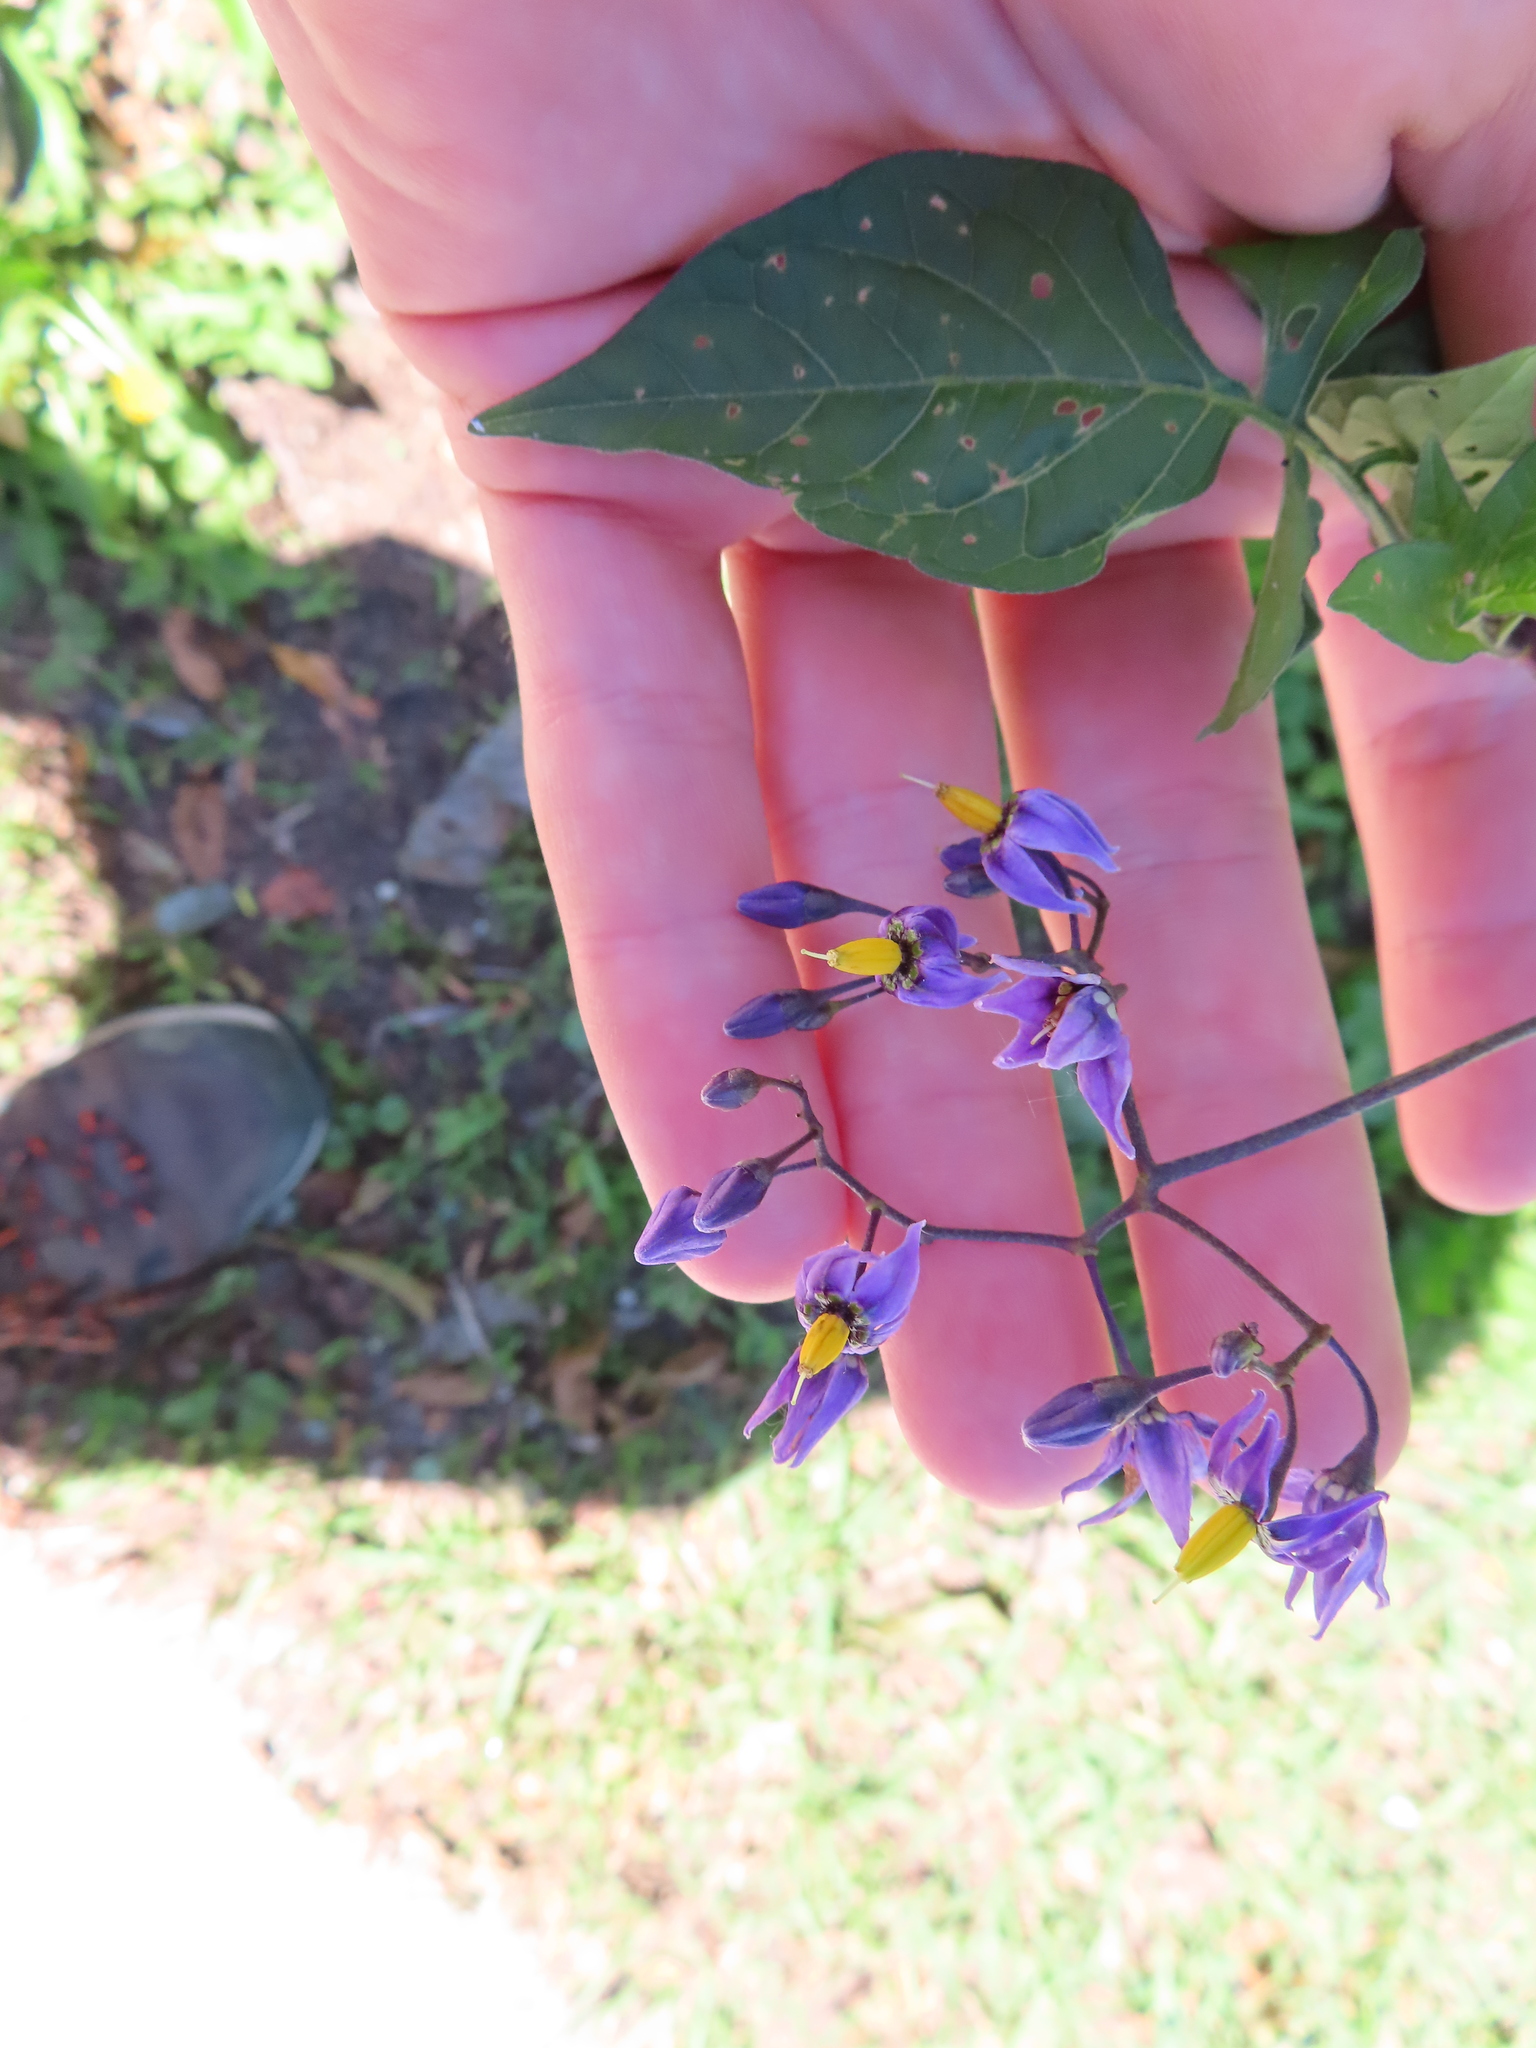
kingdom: Plantae
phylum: Tracheophyta
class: Magnoliopsida
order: Solanales
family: Solanaceae
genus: Solanum
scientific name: Solanum dulcamara
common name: Climbing nightshade
